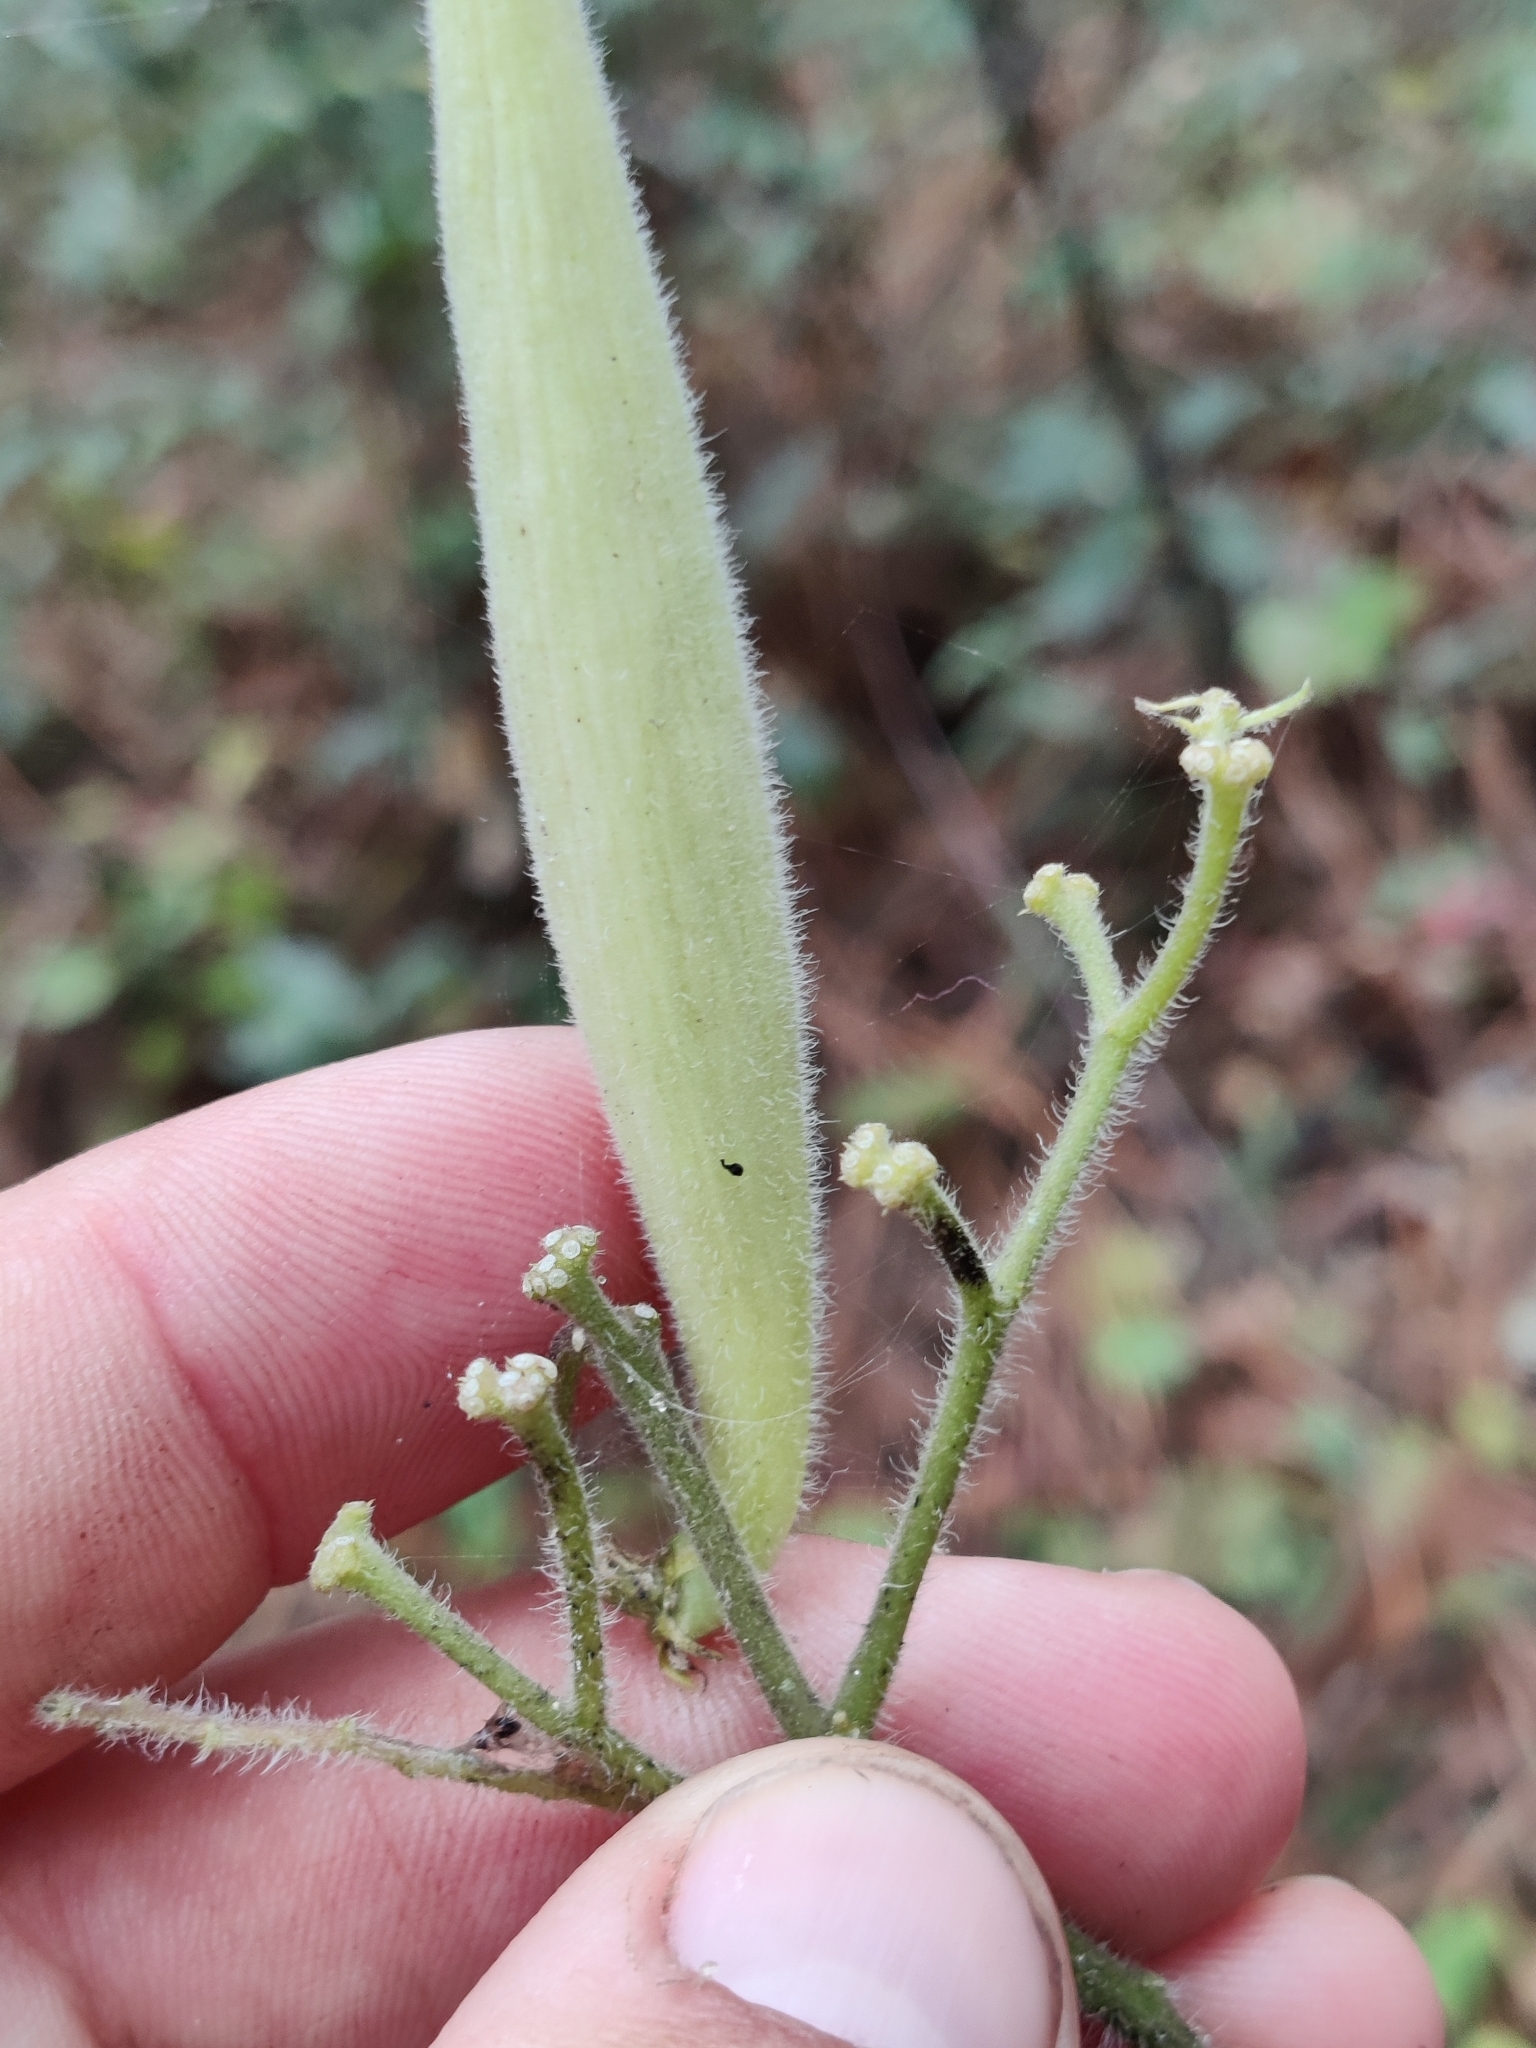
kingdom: Plantae
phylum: Tracheophyta
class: Magnoliopsida
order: Gentianales
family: Apocynaceae
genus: Asclepias
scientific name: Asclepias tuberosa
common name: Butterfly milkweed
